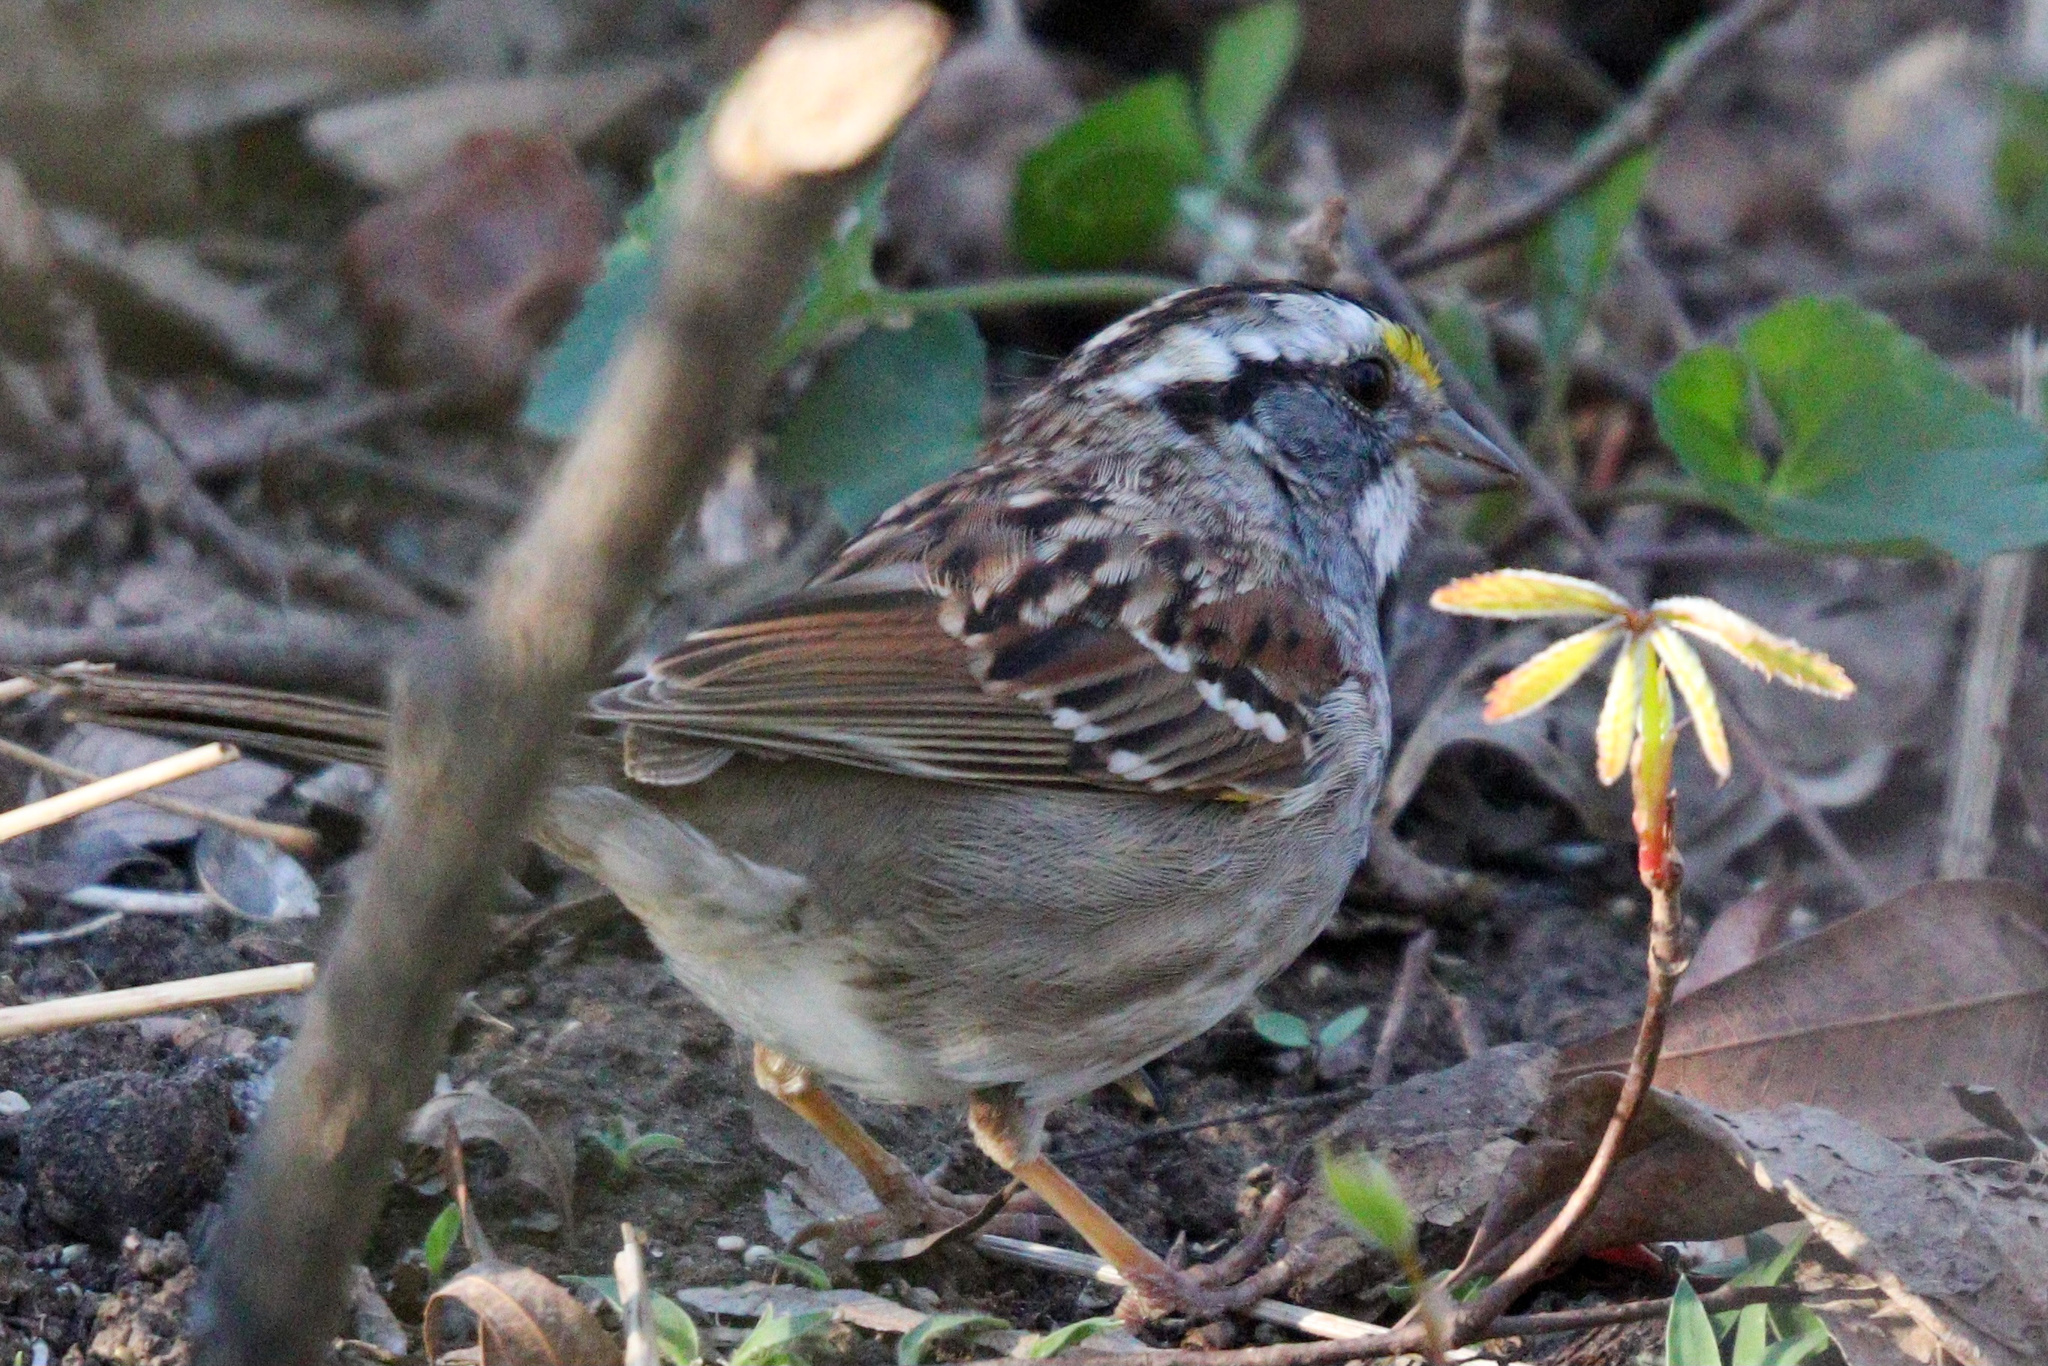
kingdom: Animalia
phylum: Chordata
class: Aves
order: Passeriformes
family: Passerellidae
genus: Zonotrichia
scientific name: Zonotrichia albicollis
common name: White-throated sparrow
